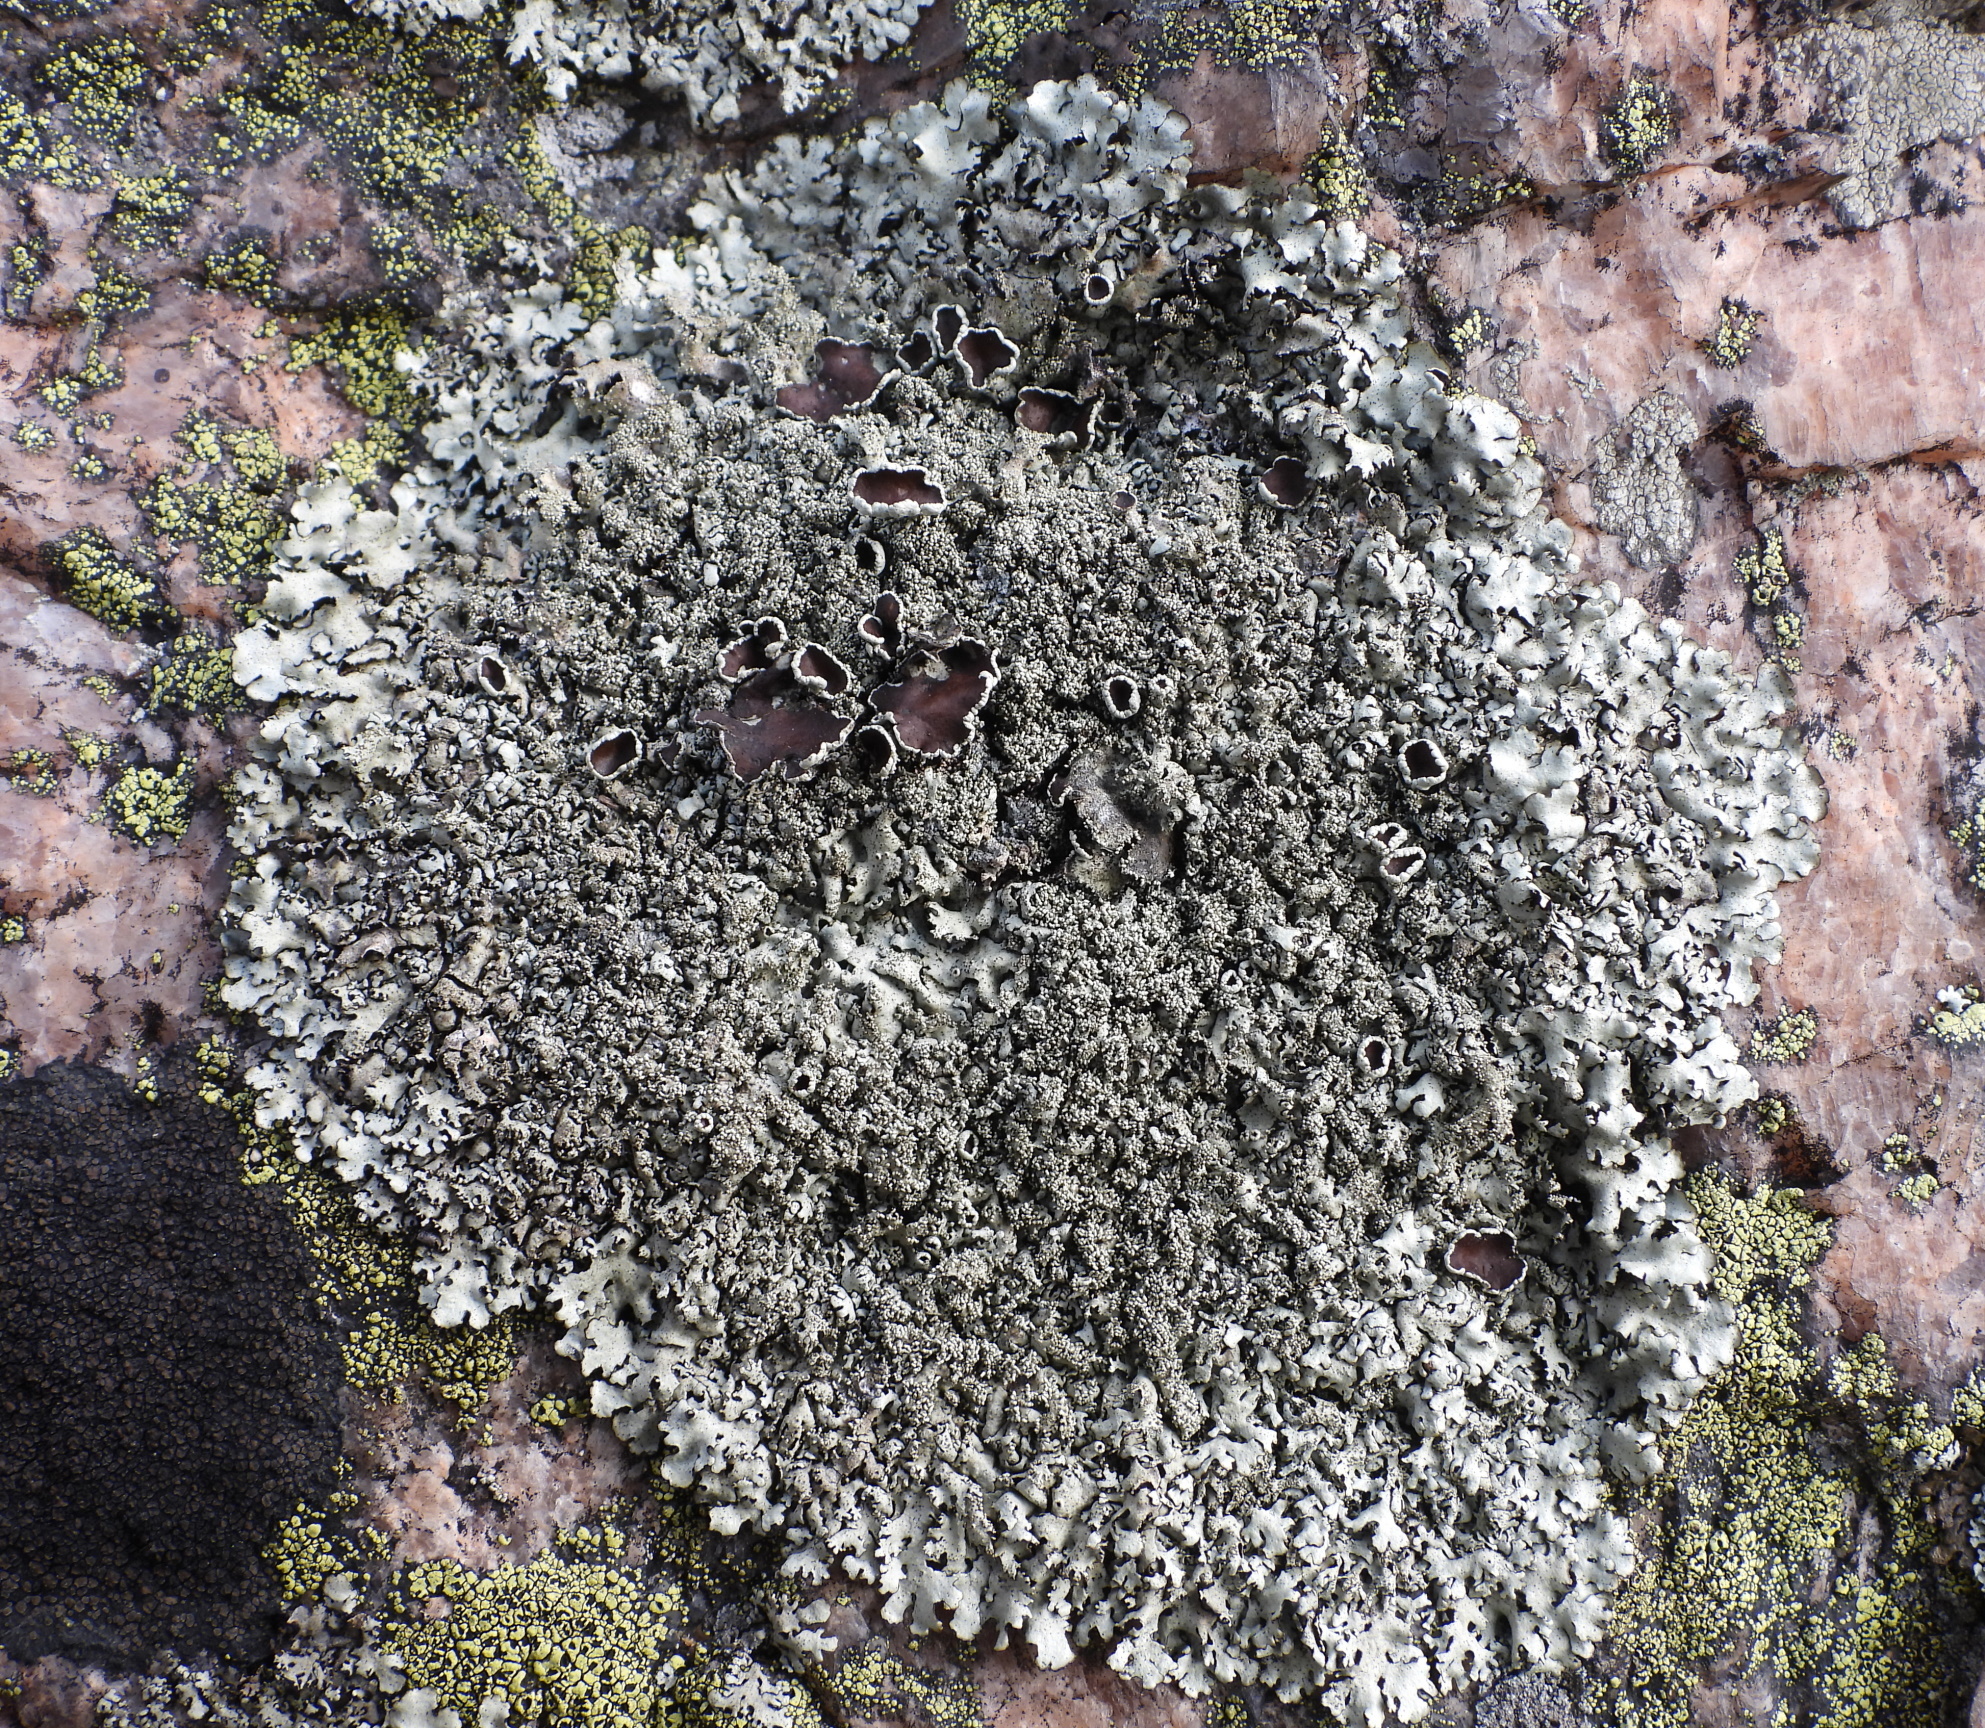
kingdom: Fungi
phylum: Ascomycota
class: Lecanoromycetes
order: Lecanorales
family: Parmeliaceae
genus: Xanthoparmelia
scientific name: Xanthoparmelia conspersa
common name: Peppered rock shield
